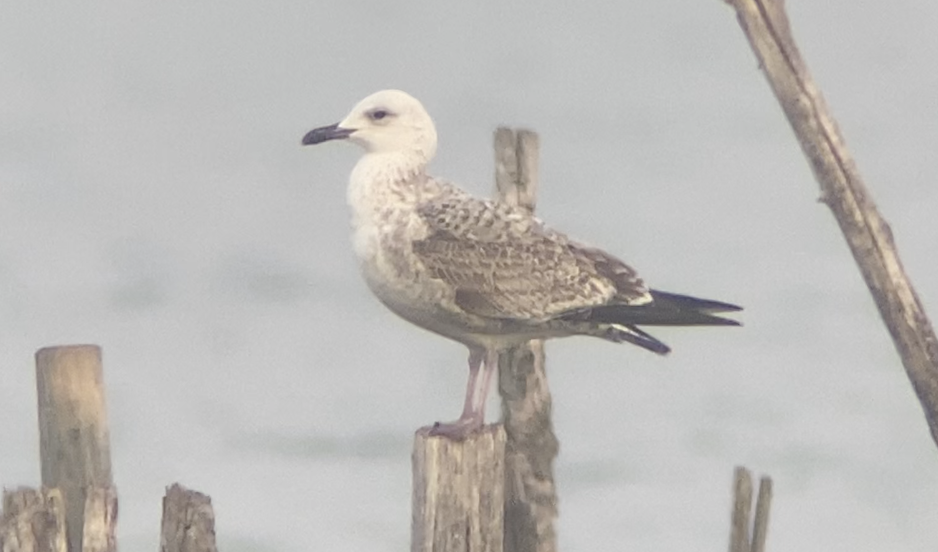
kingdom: Animalia
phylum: Chordata
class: Aves
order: Charadriiformes
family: Laridae
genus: Larus
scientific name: Larus cachinnans
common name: Caspian gull
